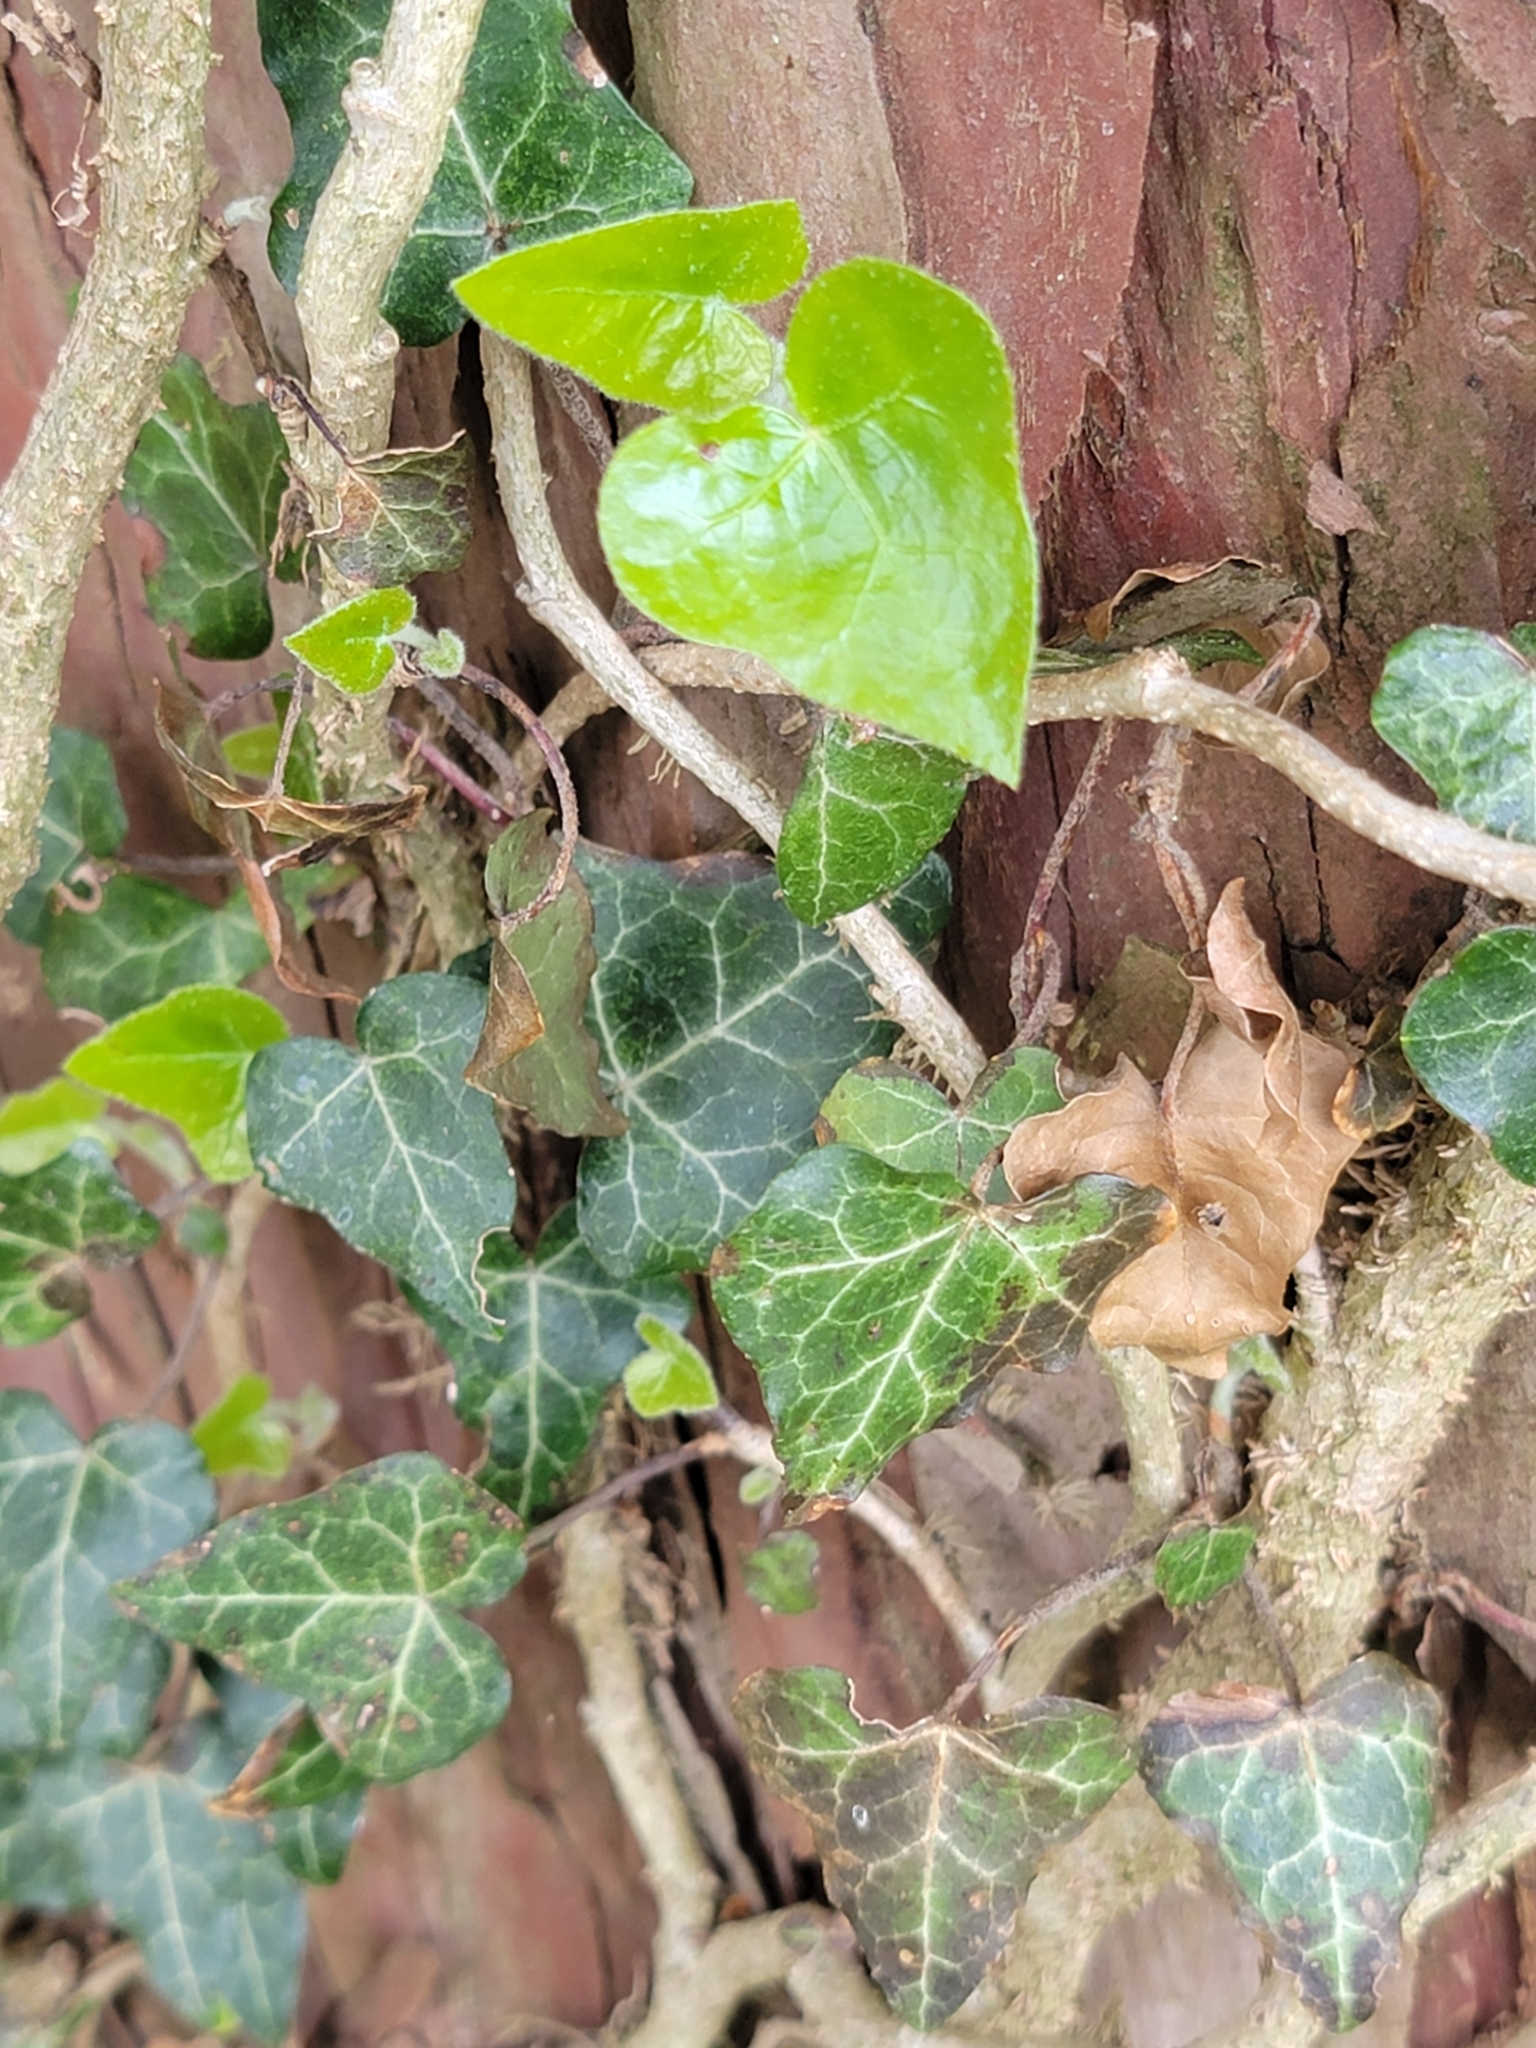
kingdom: Plantae
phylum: Tracheophyta
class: Magnoliopsida
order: Apiales
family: Araliaceae
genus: Hedera
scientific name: Hedera helix
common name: Ivy
